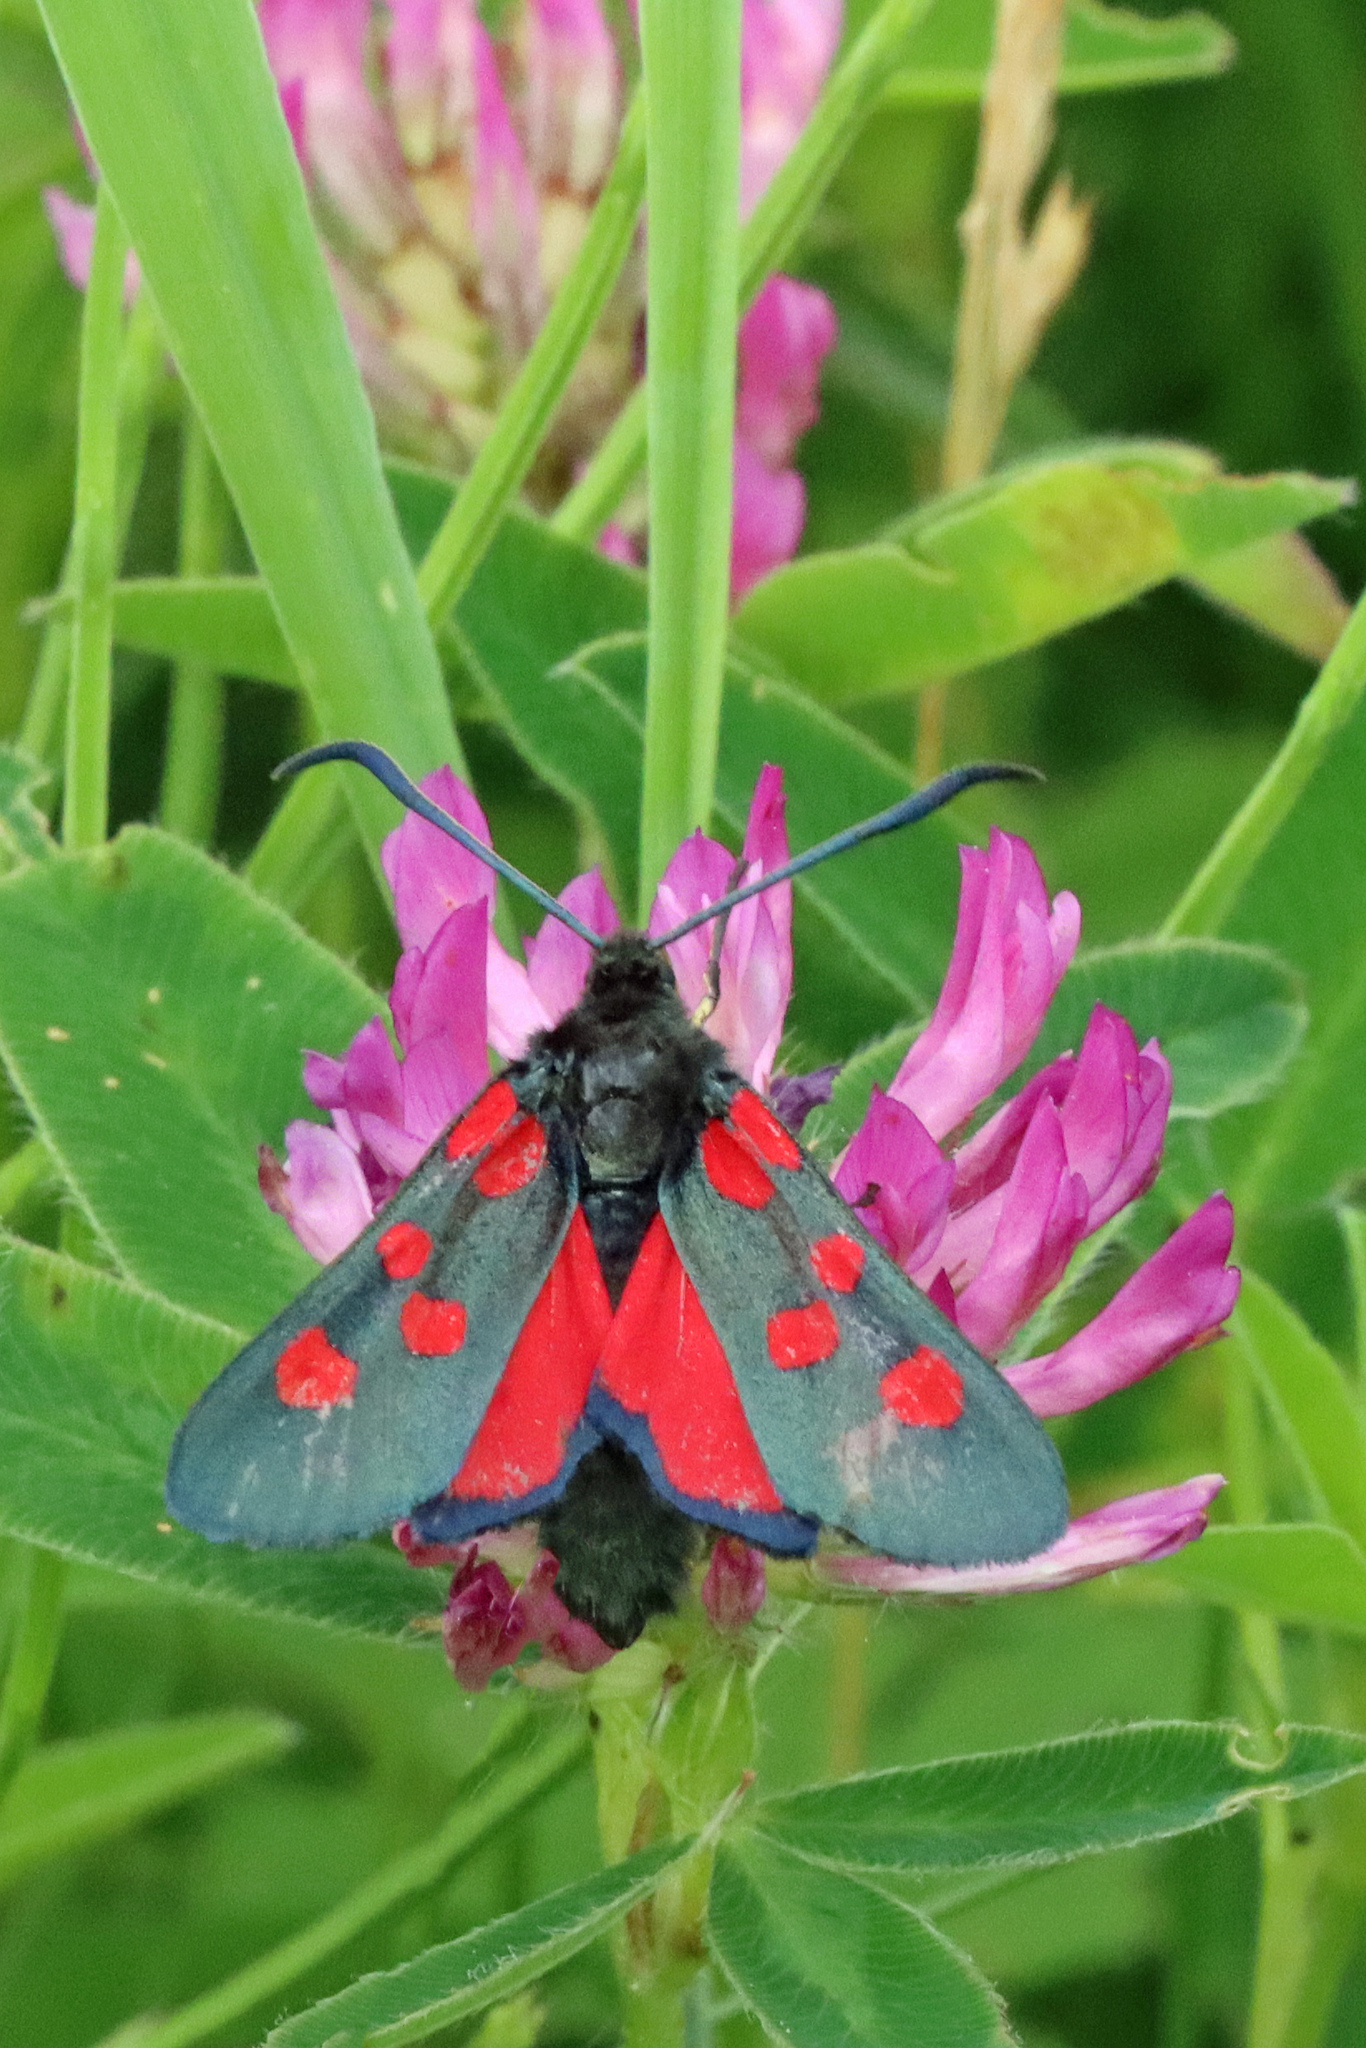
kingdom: Animalia
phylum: Arthropoda
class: Insecta
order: Lepidoptera
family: Zygaenidae
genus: Zygaena
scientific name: Zygaena lonicerae
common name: Narrow-bordered five-spot burnet
